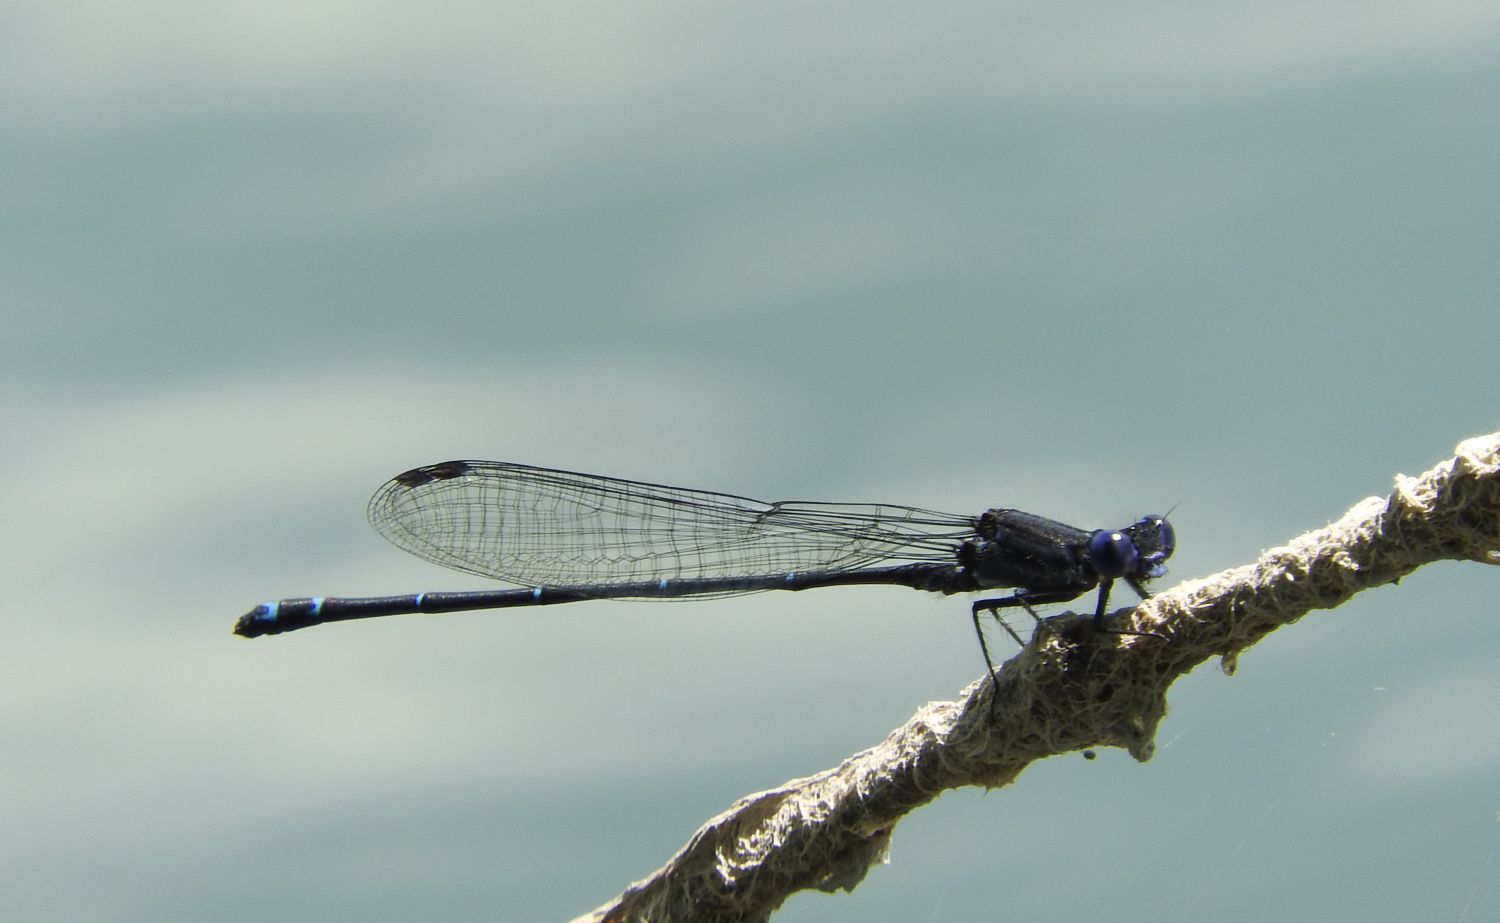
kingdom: Animalia
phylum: Arthropoda
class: Insecta
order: Odonata
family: Coenagrionidae
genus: Argia
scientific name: Argia translata
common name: Dusky dancer
